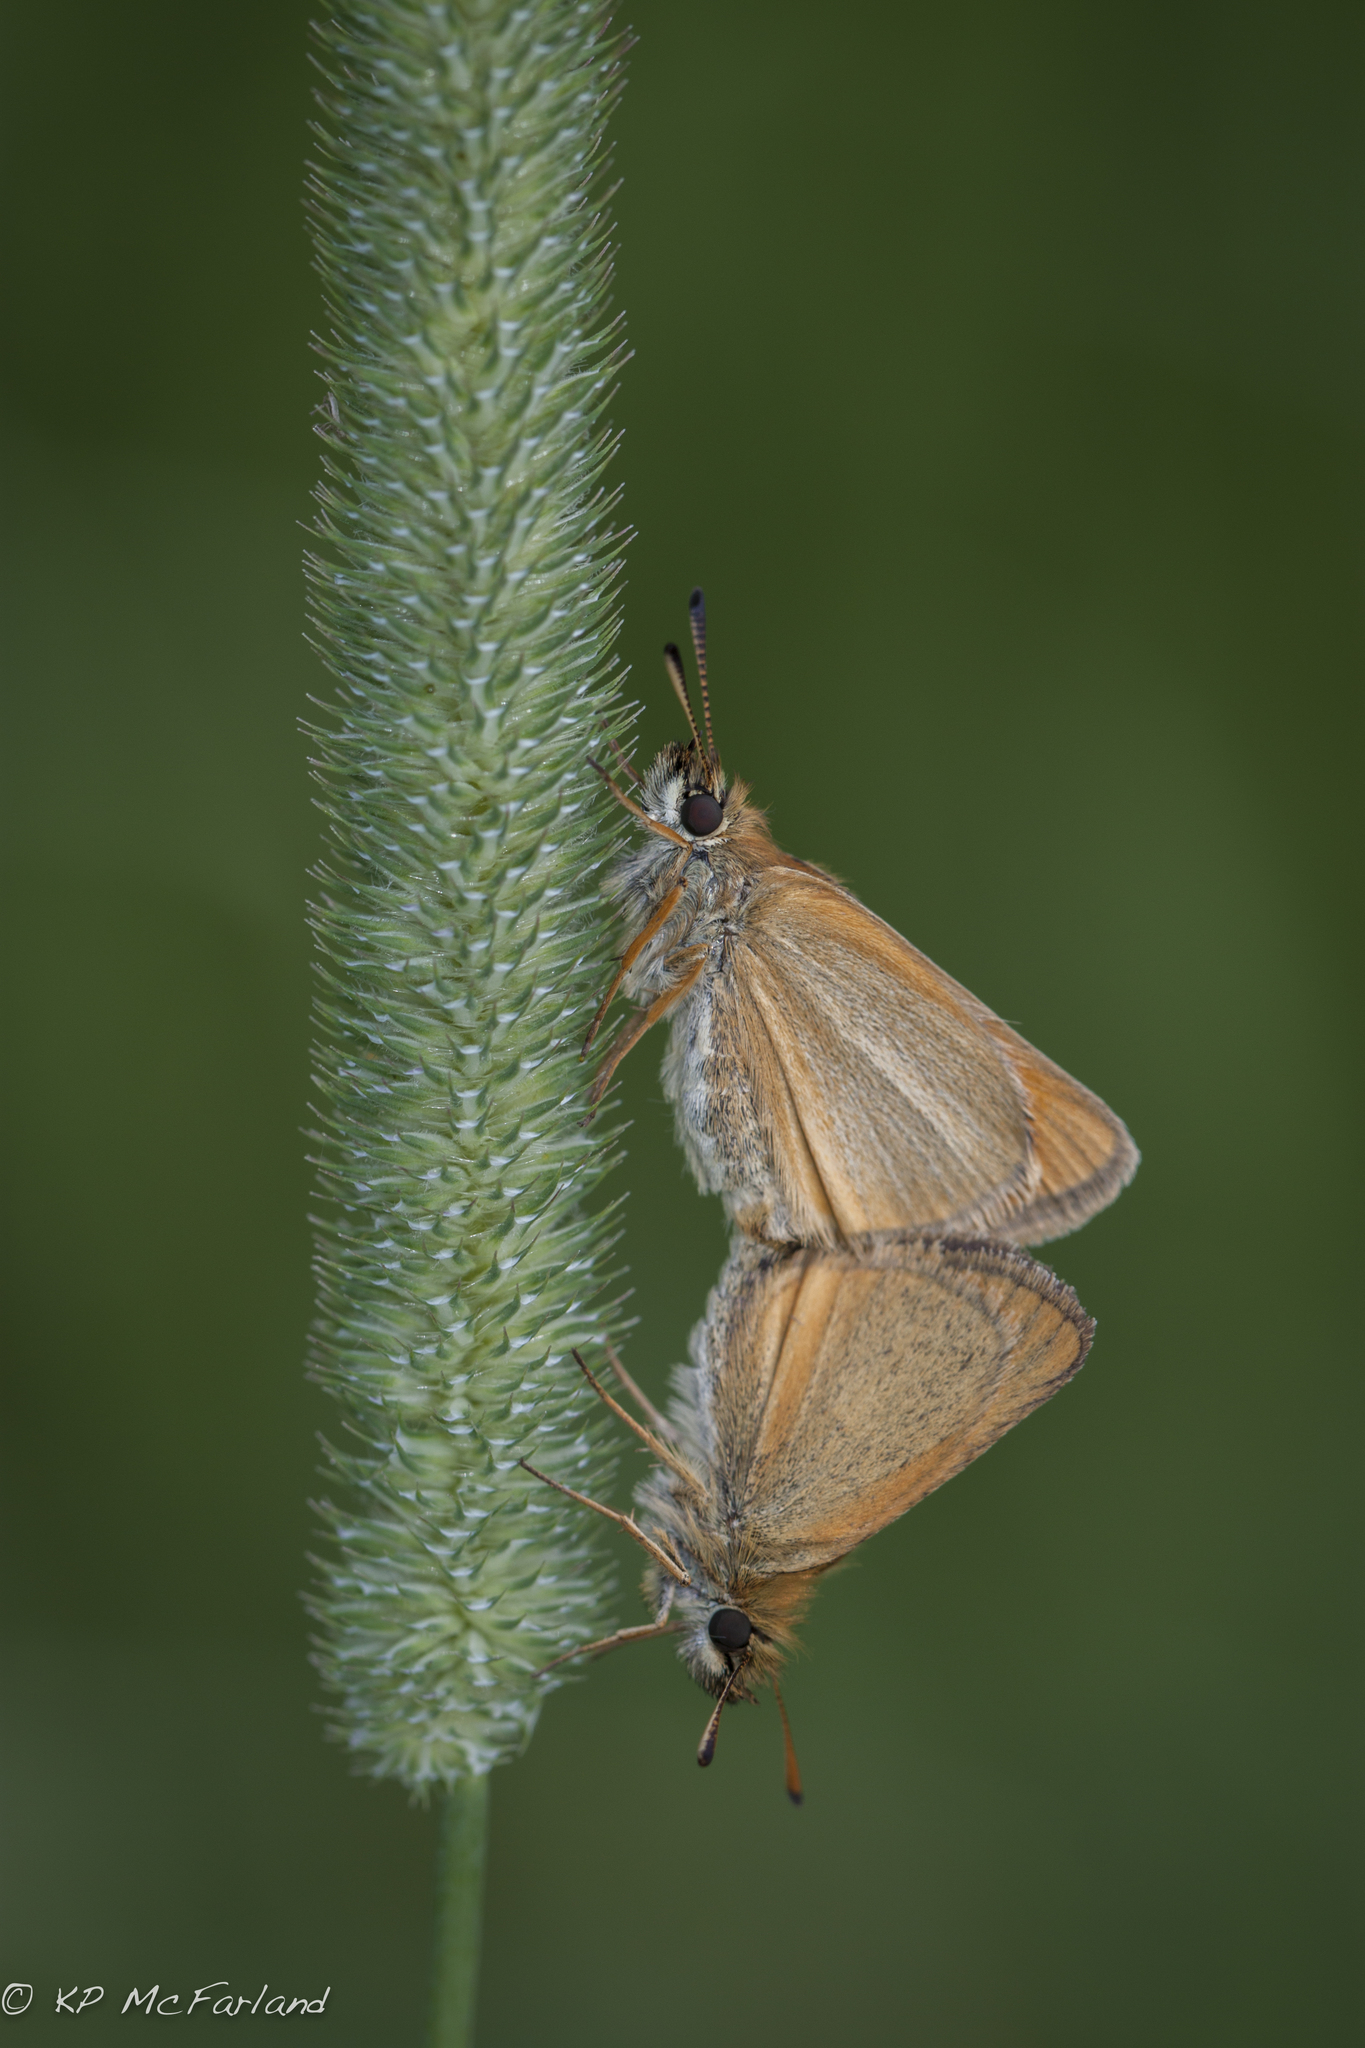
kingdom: Animalia
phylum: Arthropoda
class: Insecta
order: Lepidoptera
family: Hesperiidae
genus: Thymelicus
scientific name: Thymelicus lineola
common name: Essex skipper
